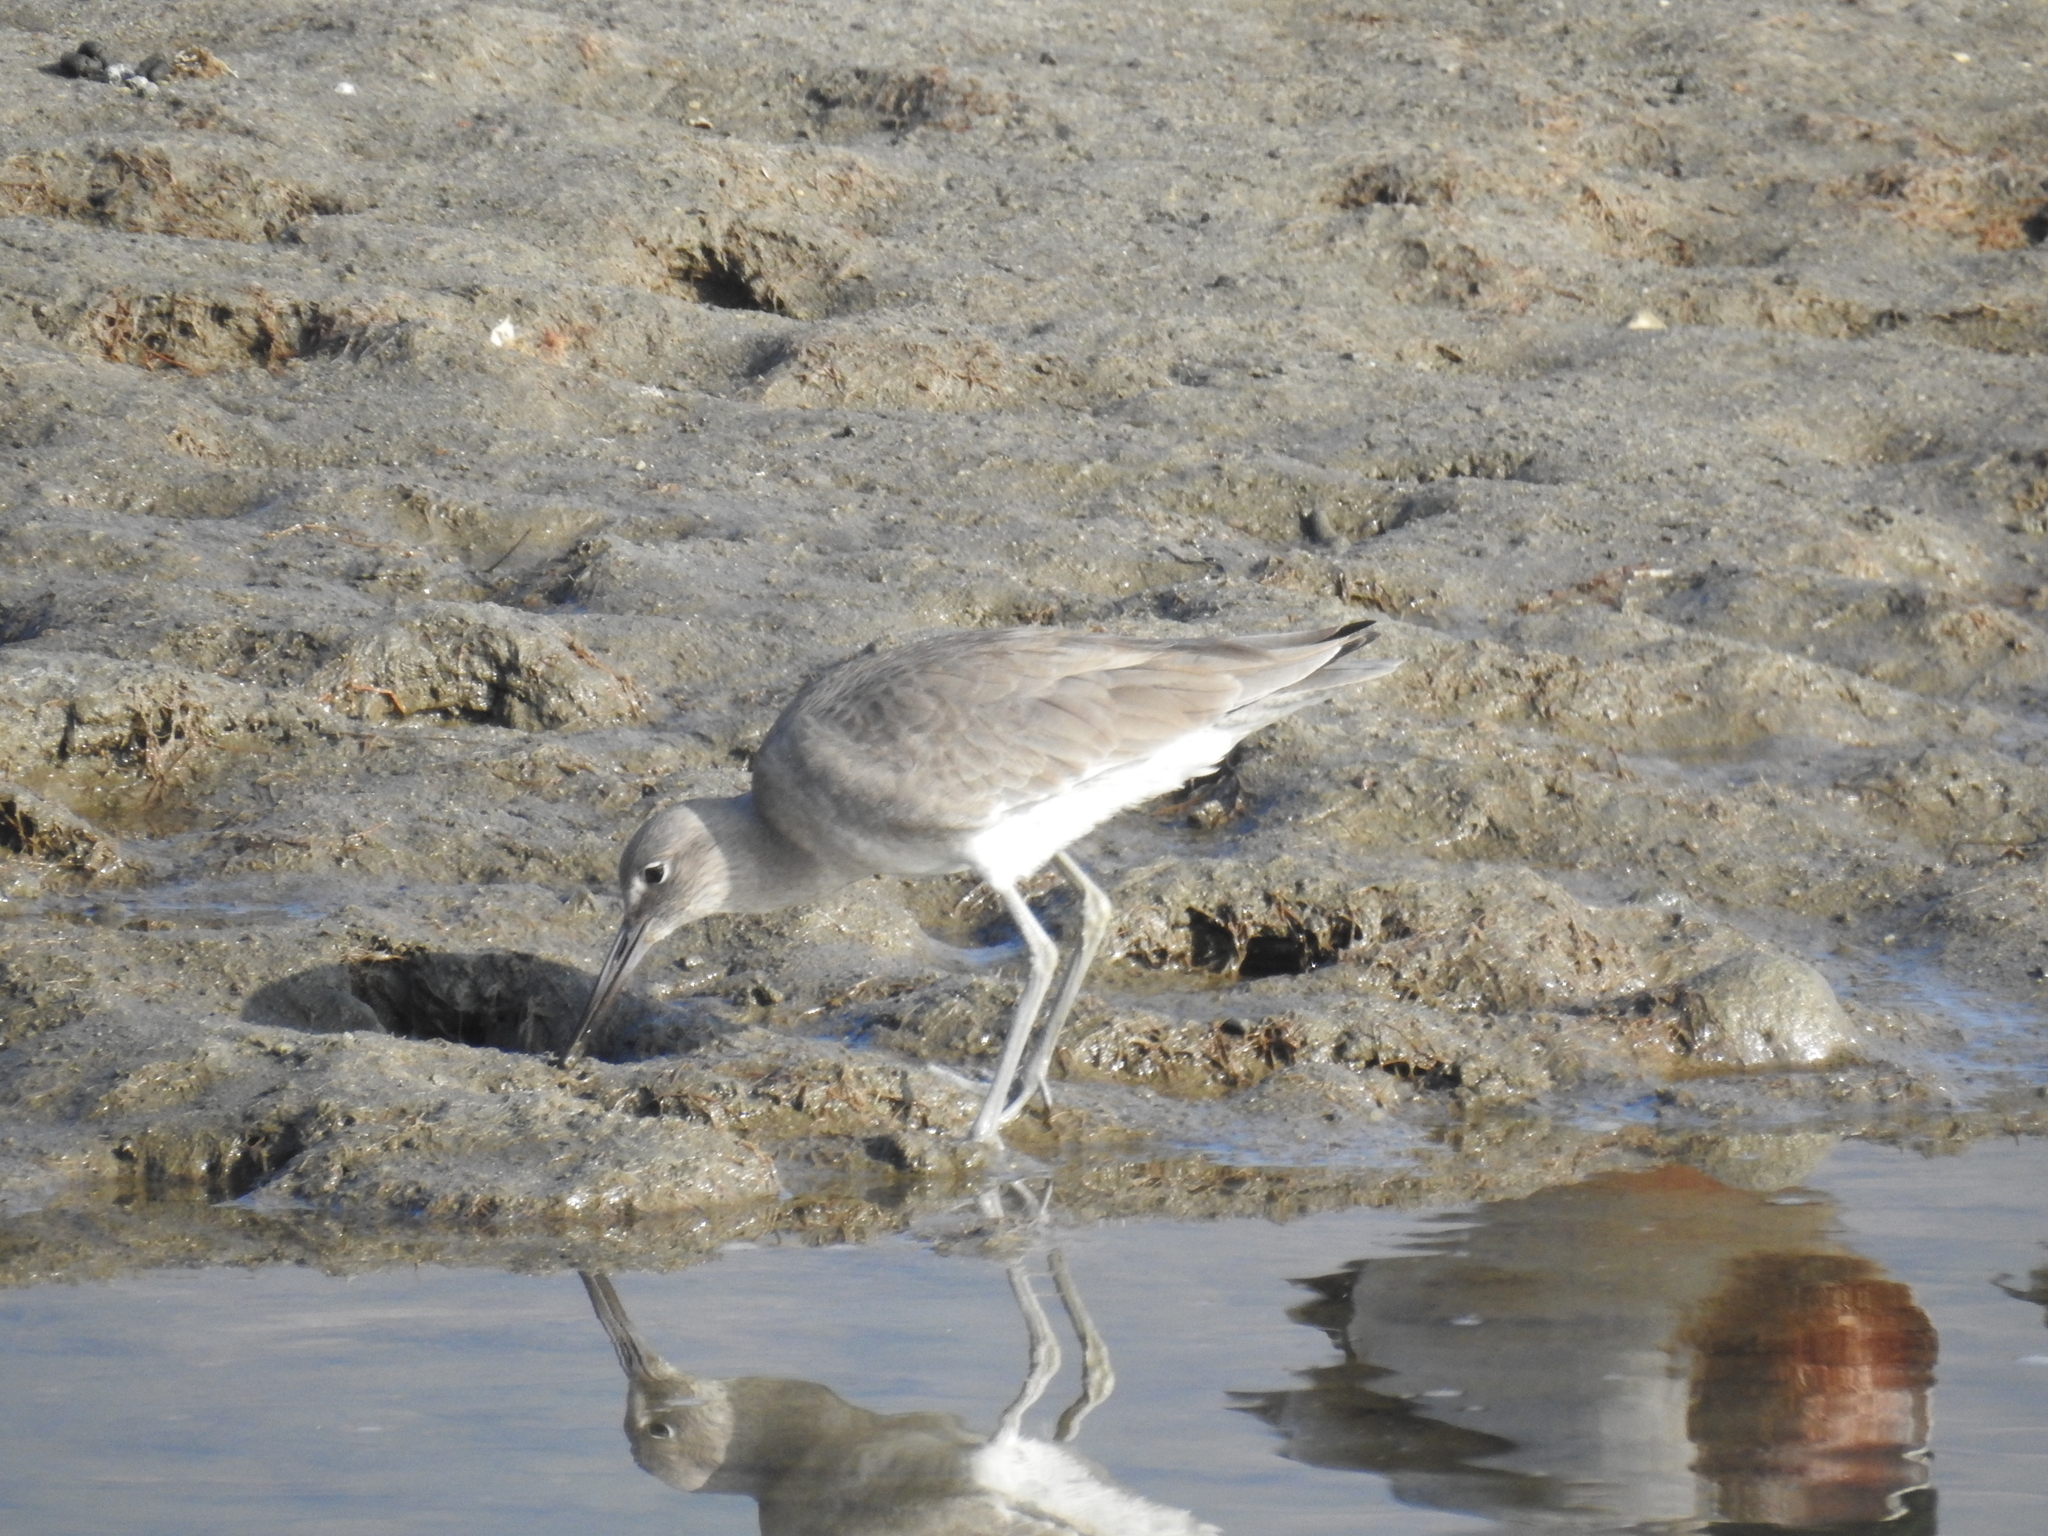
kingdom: Animalia
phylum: Chordata
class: Aves
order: Charadriiformes
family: Scolopacidae
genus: Tringa
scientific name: Tringa semipalmata
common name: Willet
